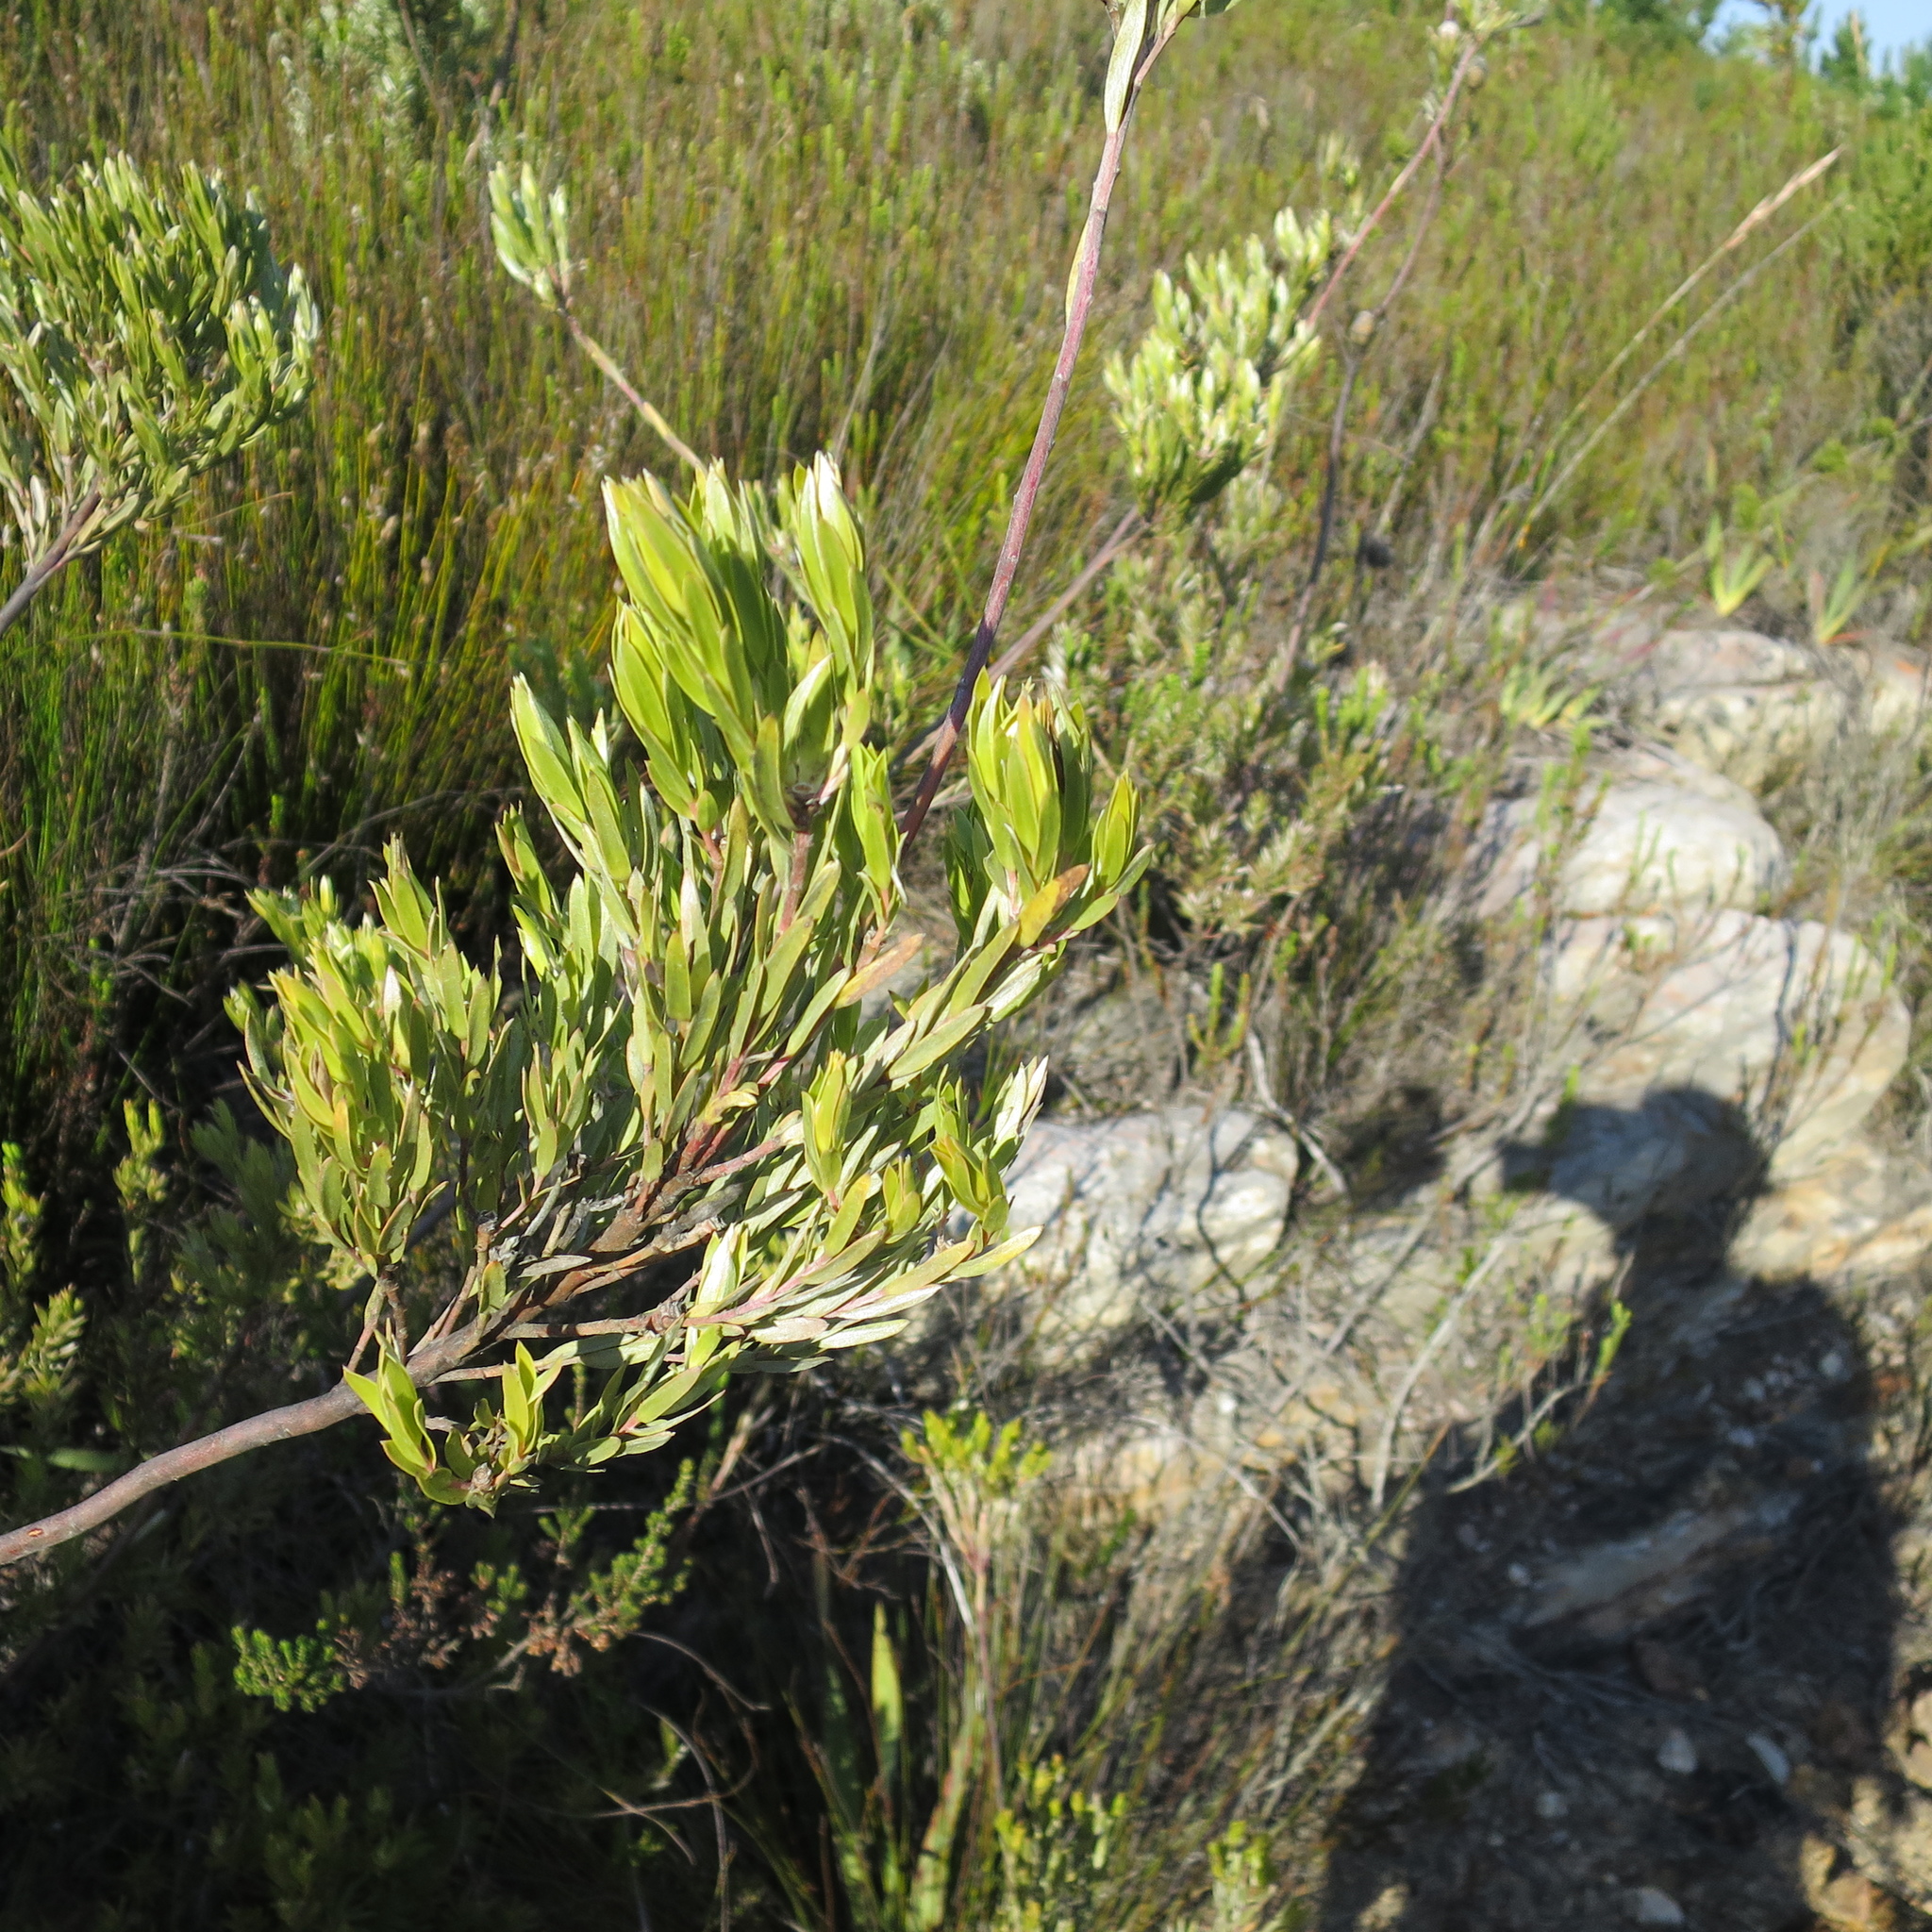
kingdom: Plantae
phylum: Tracheophyta
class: Magnoliopsida
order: Proteales
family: Proteaceae
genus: Leucadendron
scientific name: Leucadendron uliginosum
